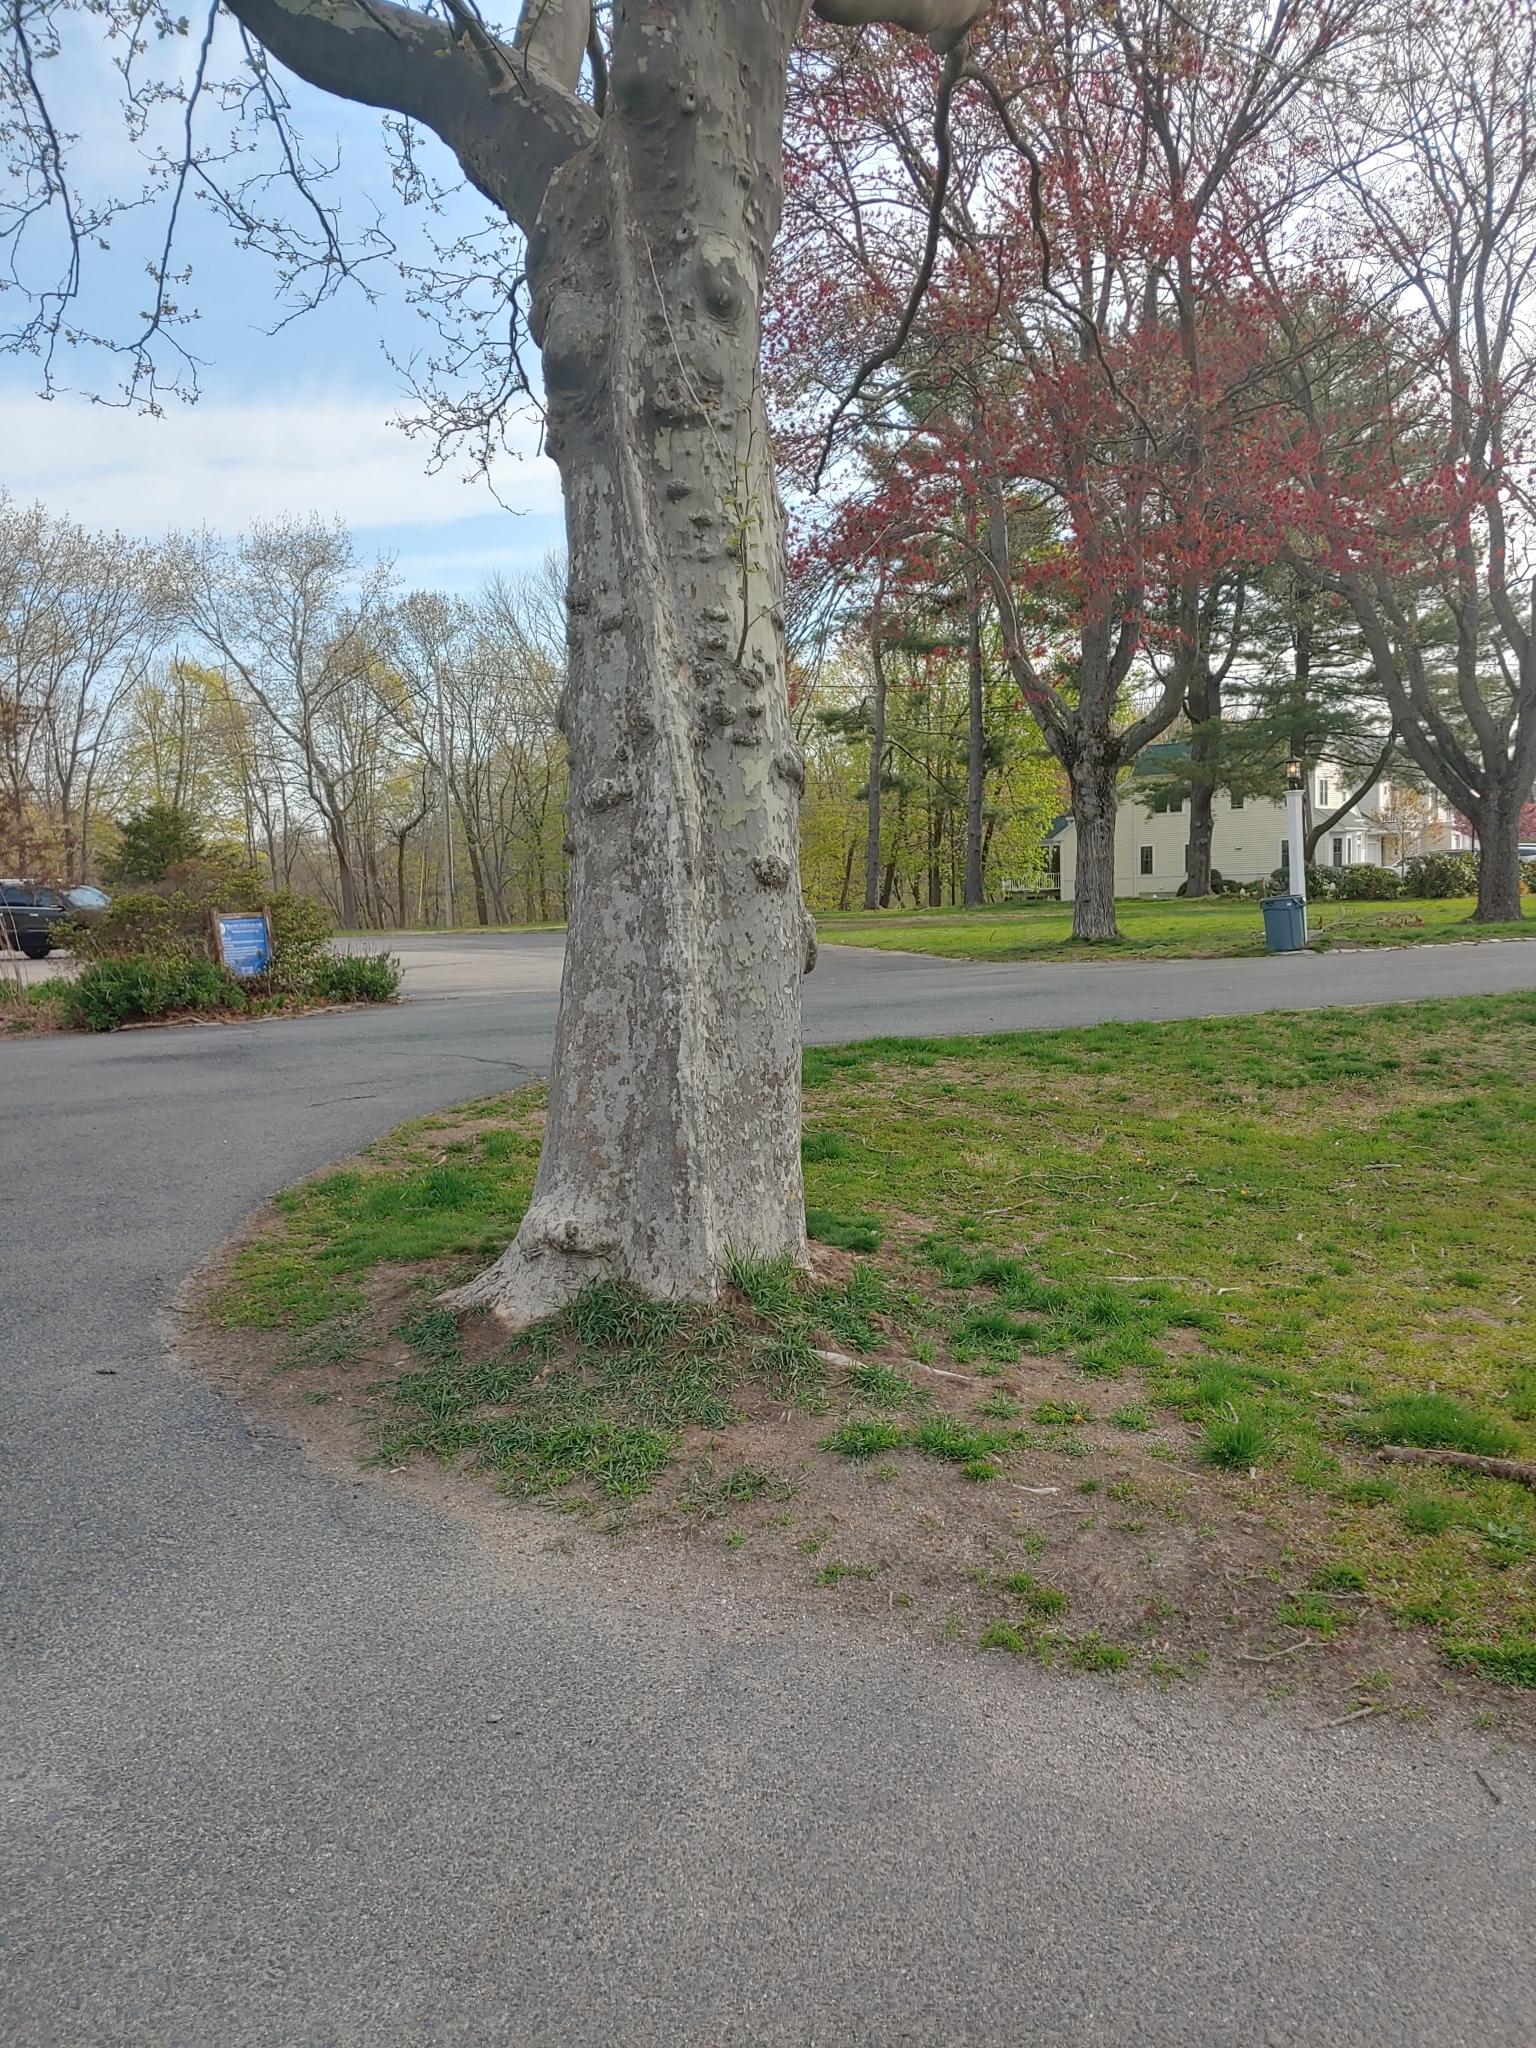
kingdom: Plantae
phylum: Tracheophyta
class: Magnoliopsida
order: Proteales
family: Platanaceae
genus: Platanus
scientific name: Platanus occidentalis
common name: American sycamore
